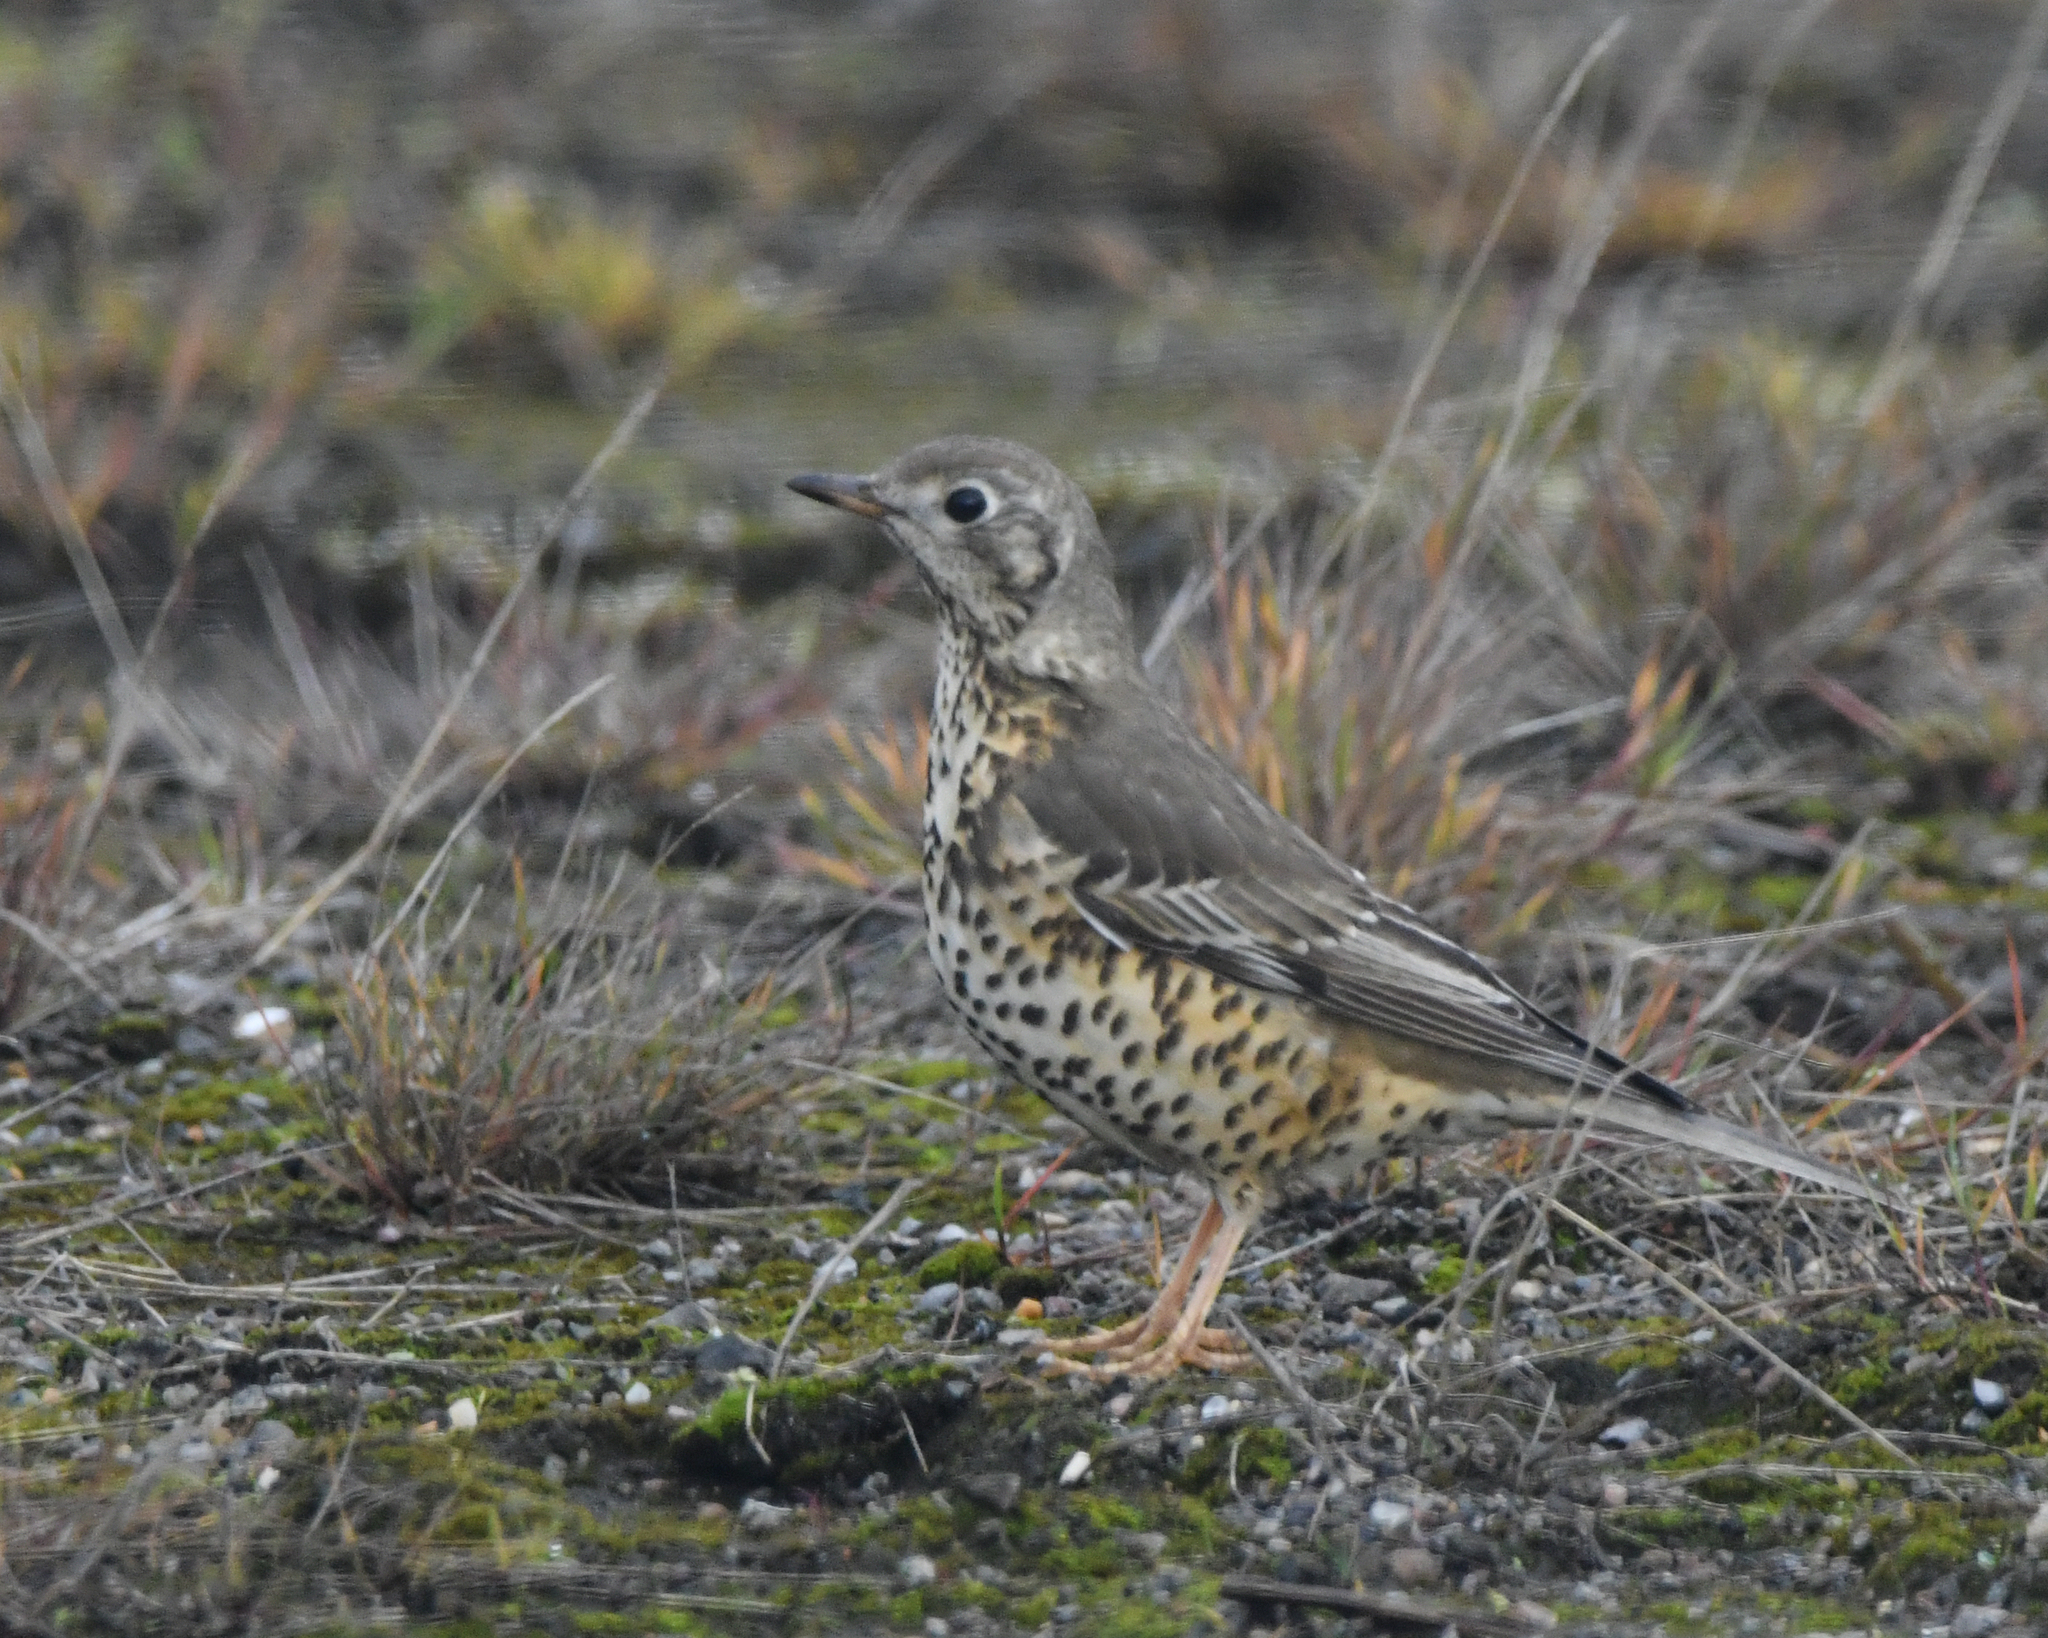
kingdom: Animalia
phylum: Chordata
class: Aves
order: Passeriformes
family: Turdidae
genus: Turdus
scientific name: Turdus viscivorus
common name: Mistle thrush
